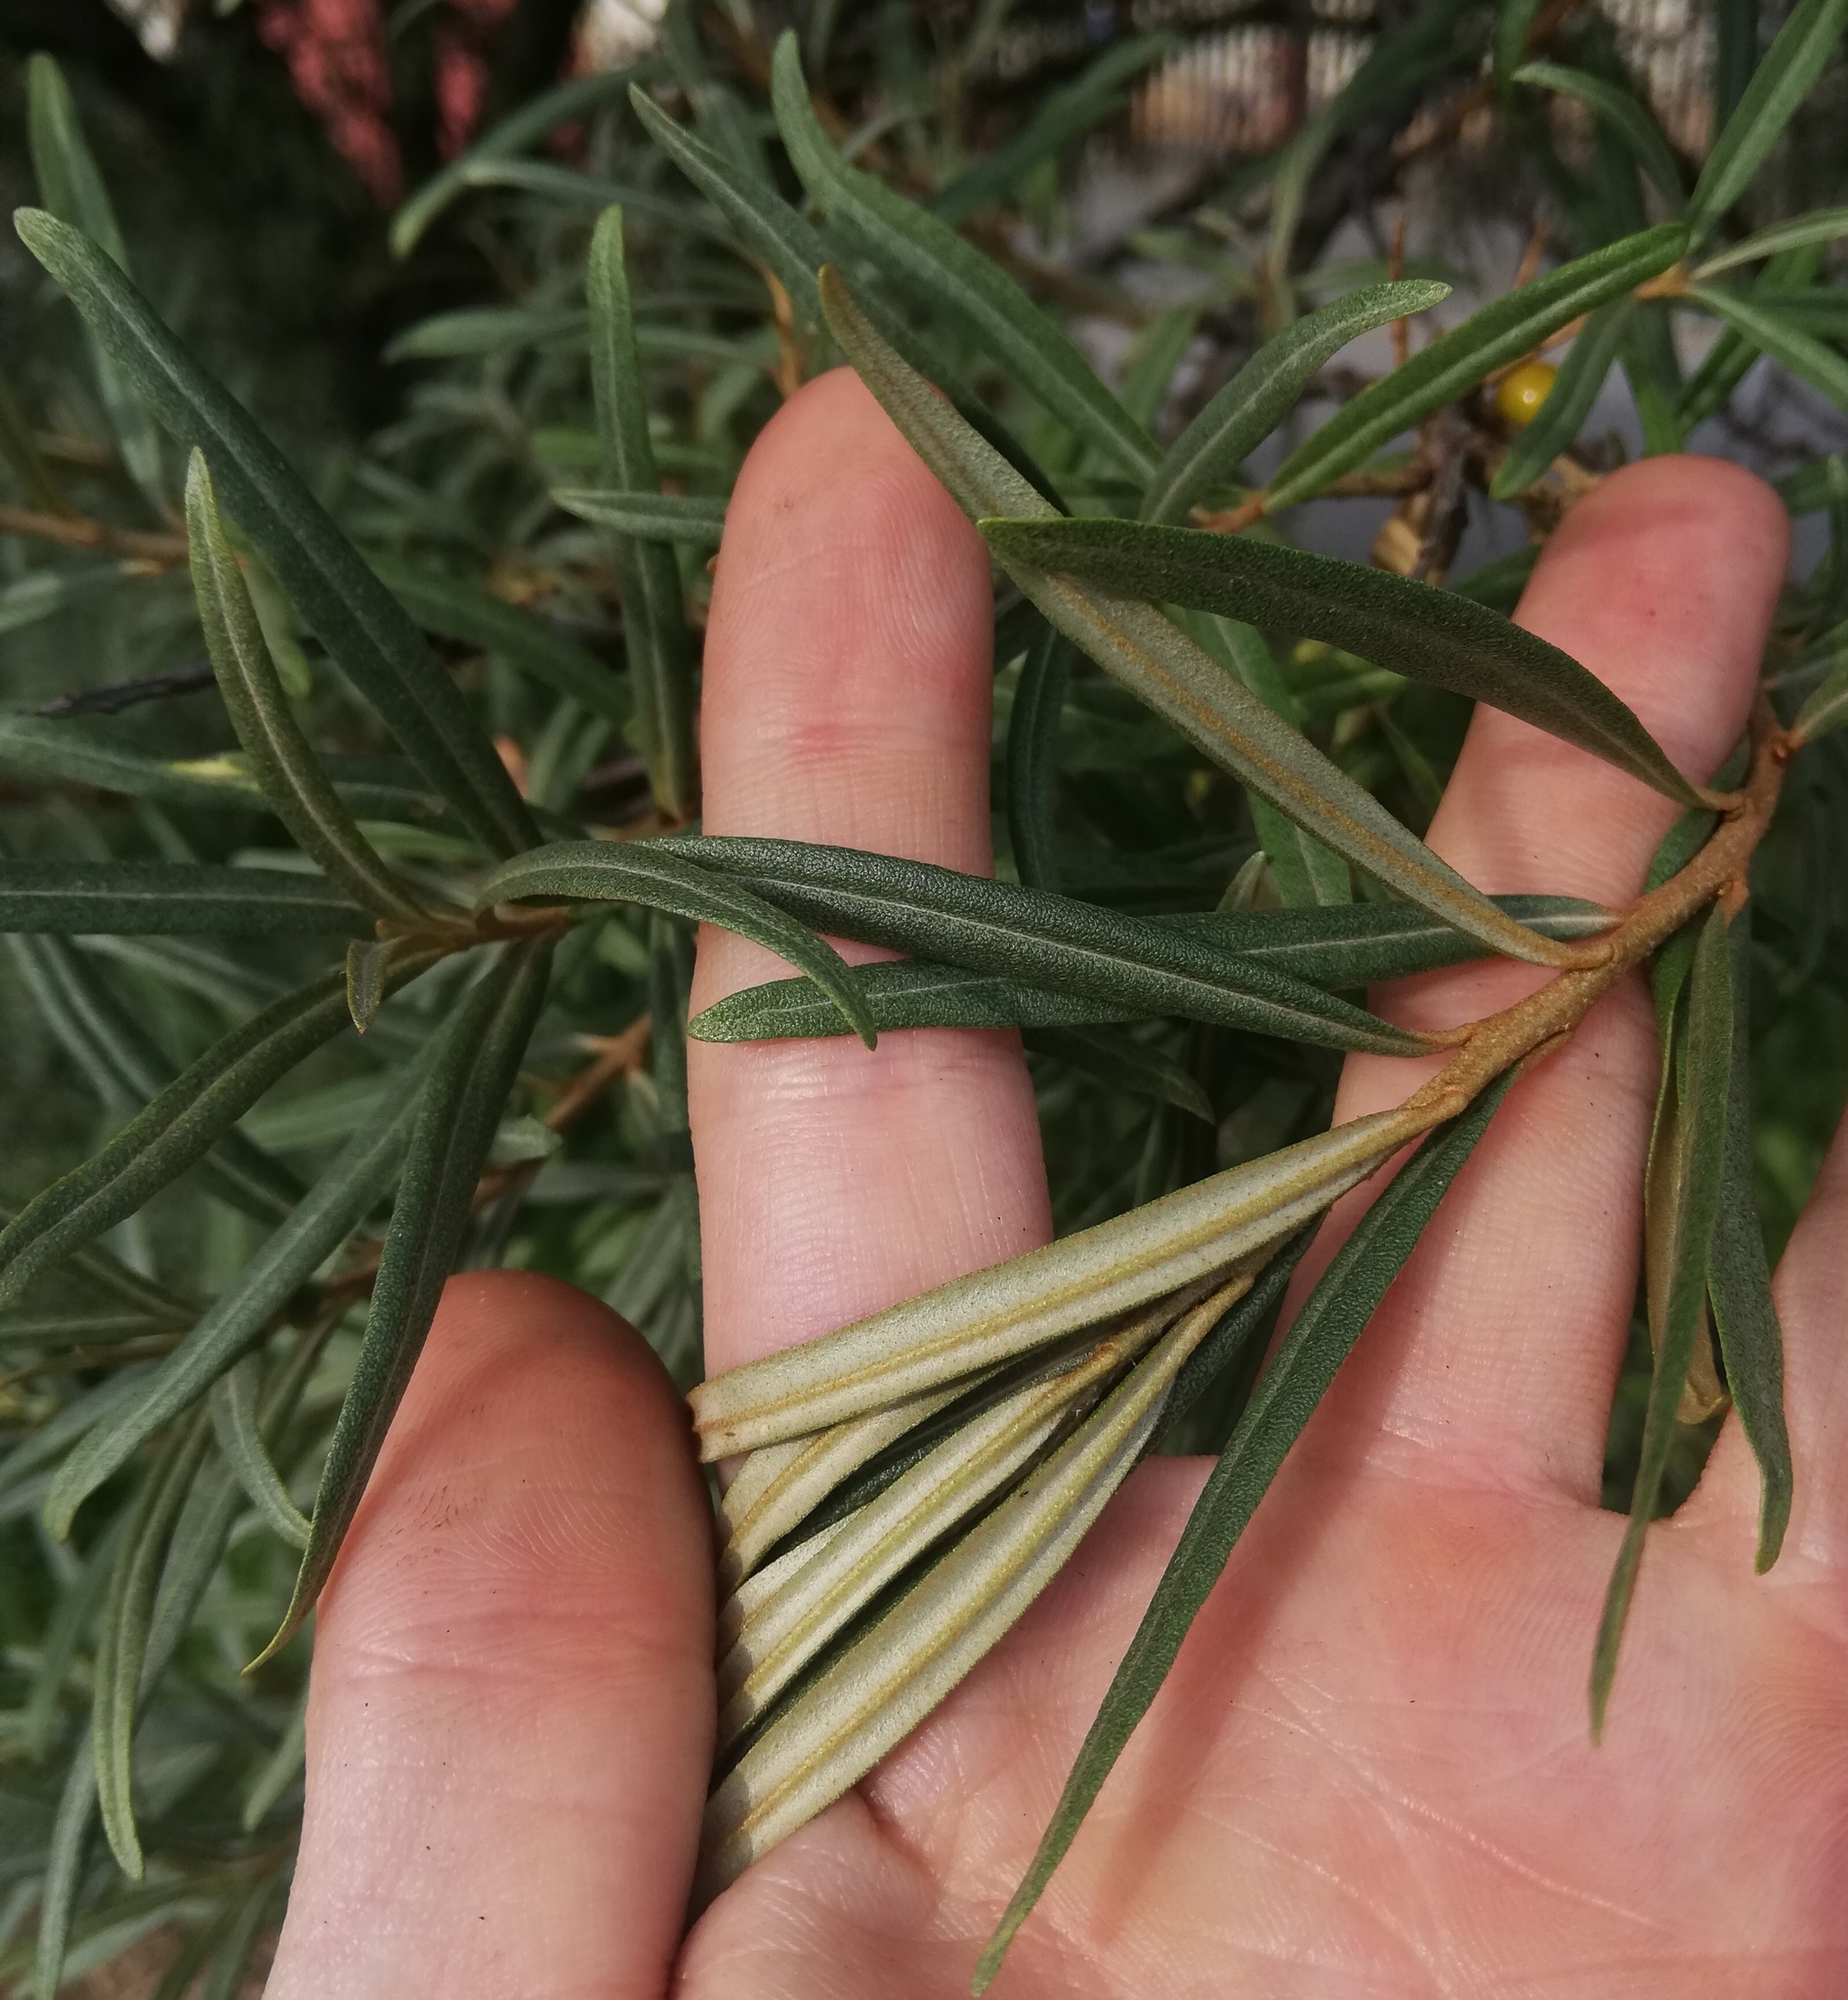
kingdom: Plantae
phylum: Tracheophyta
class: Magnoliopsida
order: Rosales
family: Elaeagnaceae
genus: Hippophae
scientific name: Hippophae rhamnoides
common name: Sea-buckthorn
